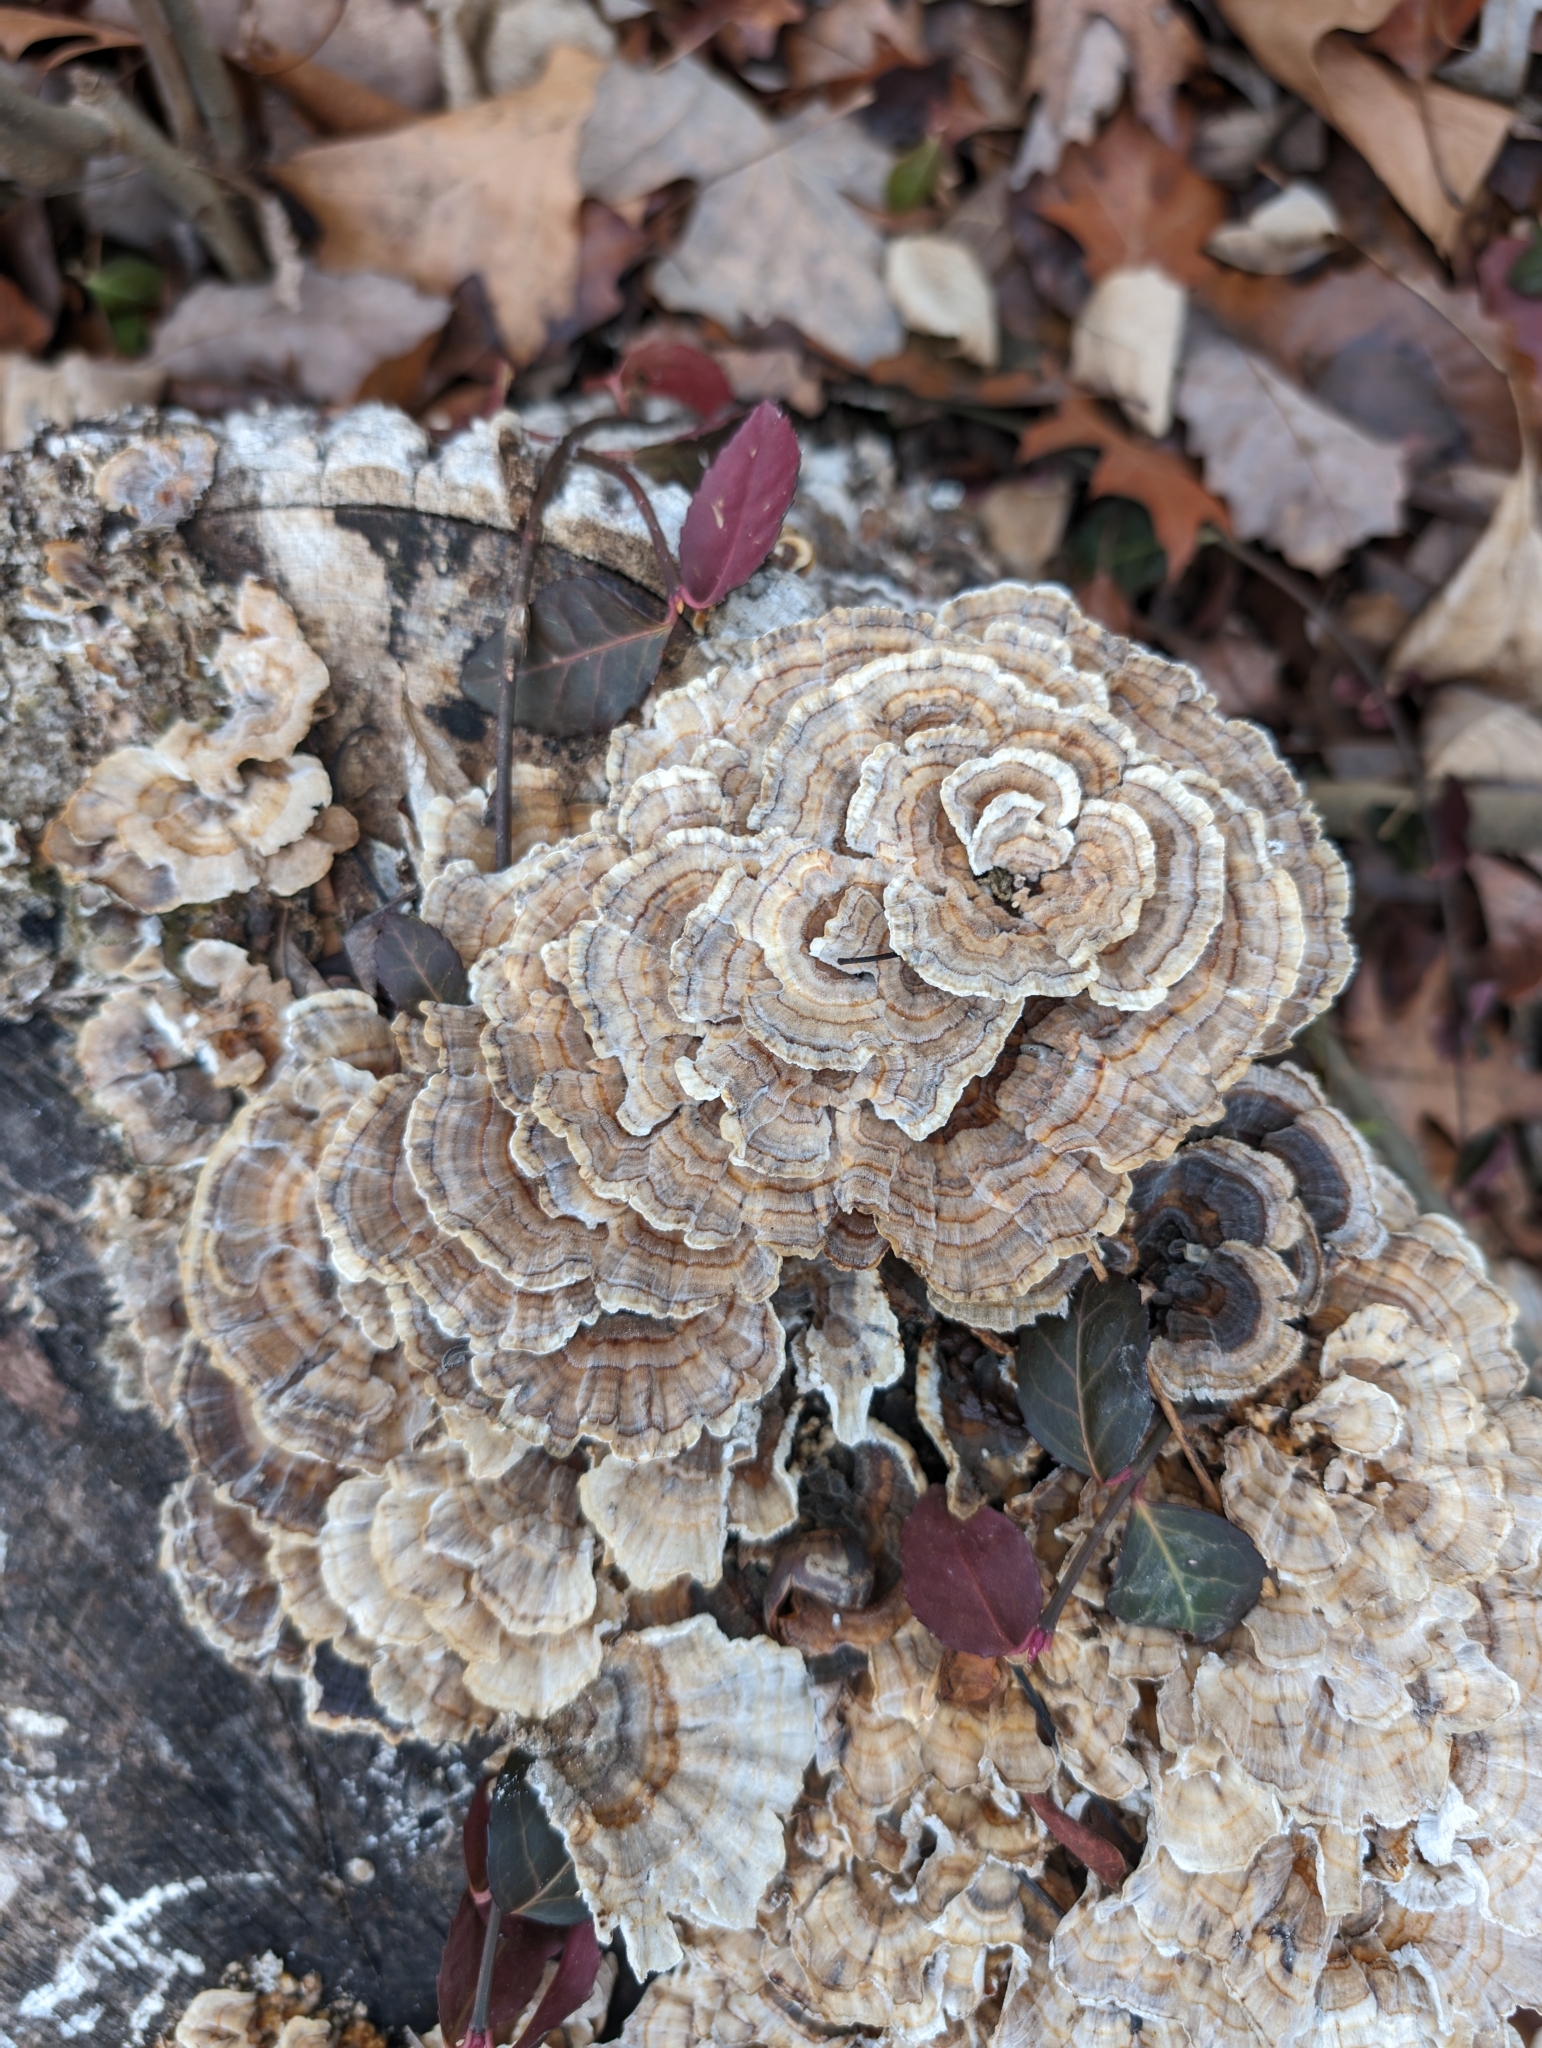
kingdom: Fungi
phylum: Basidiomycota
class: Agaricomycetes
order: Polyporales
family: Polyporaceae
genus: Trametes
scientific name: Trametes versicolor
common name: Turkeytail
